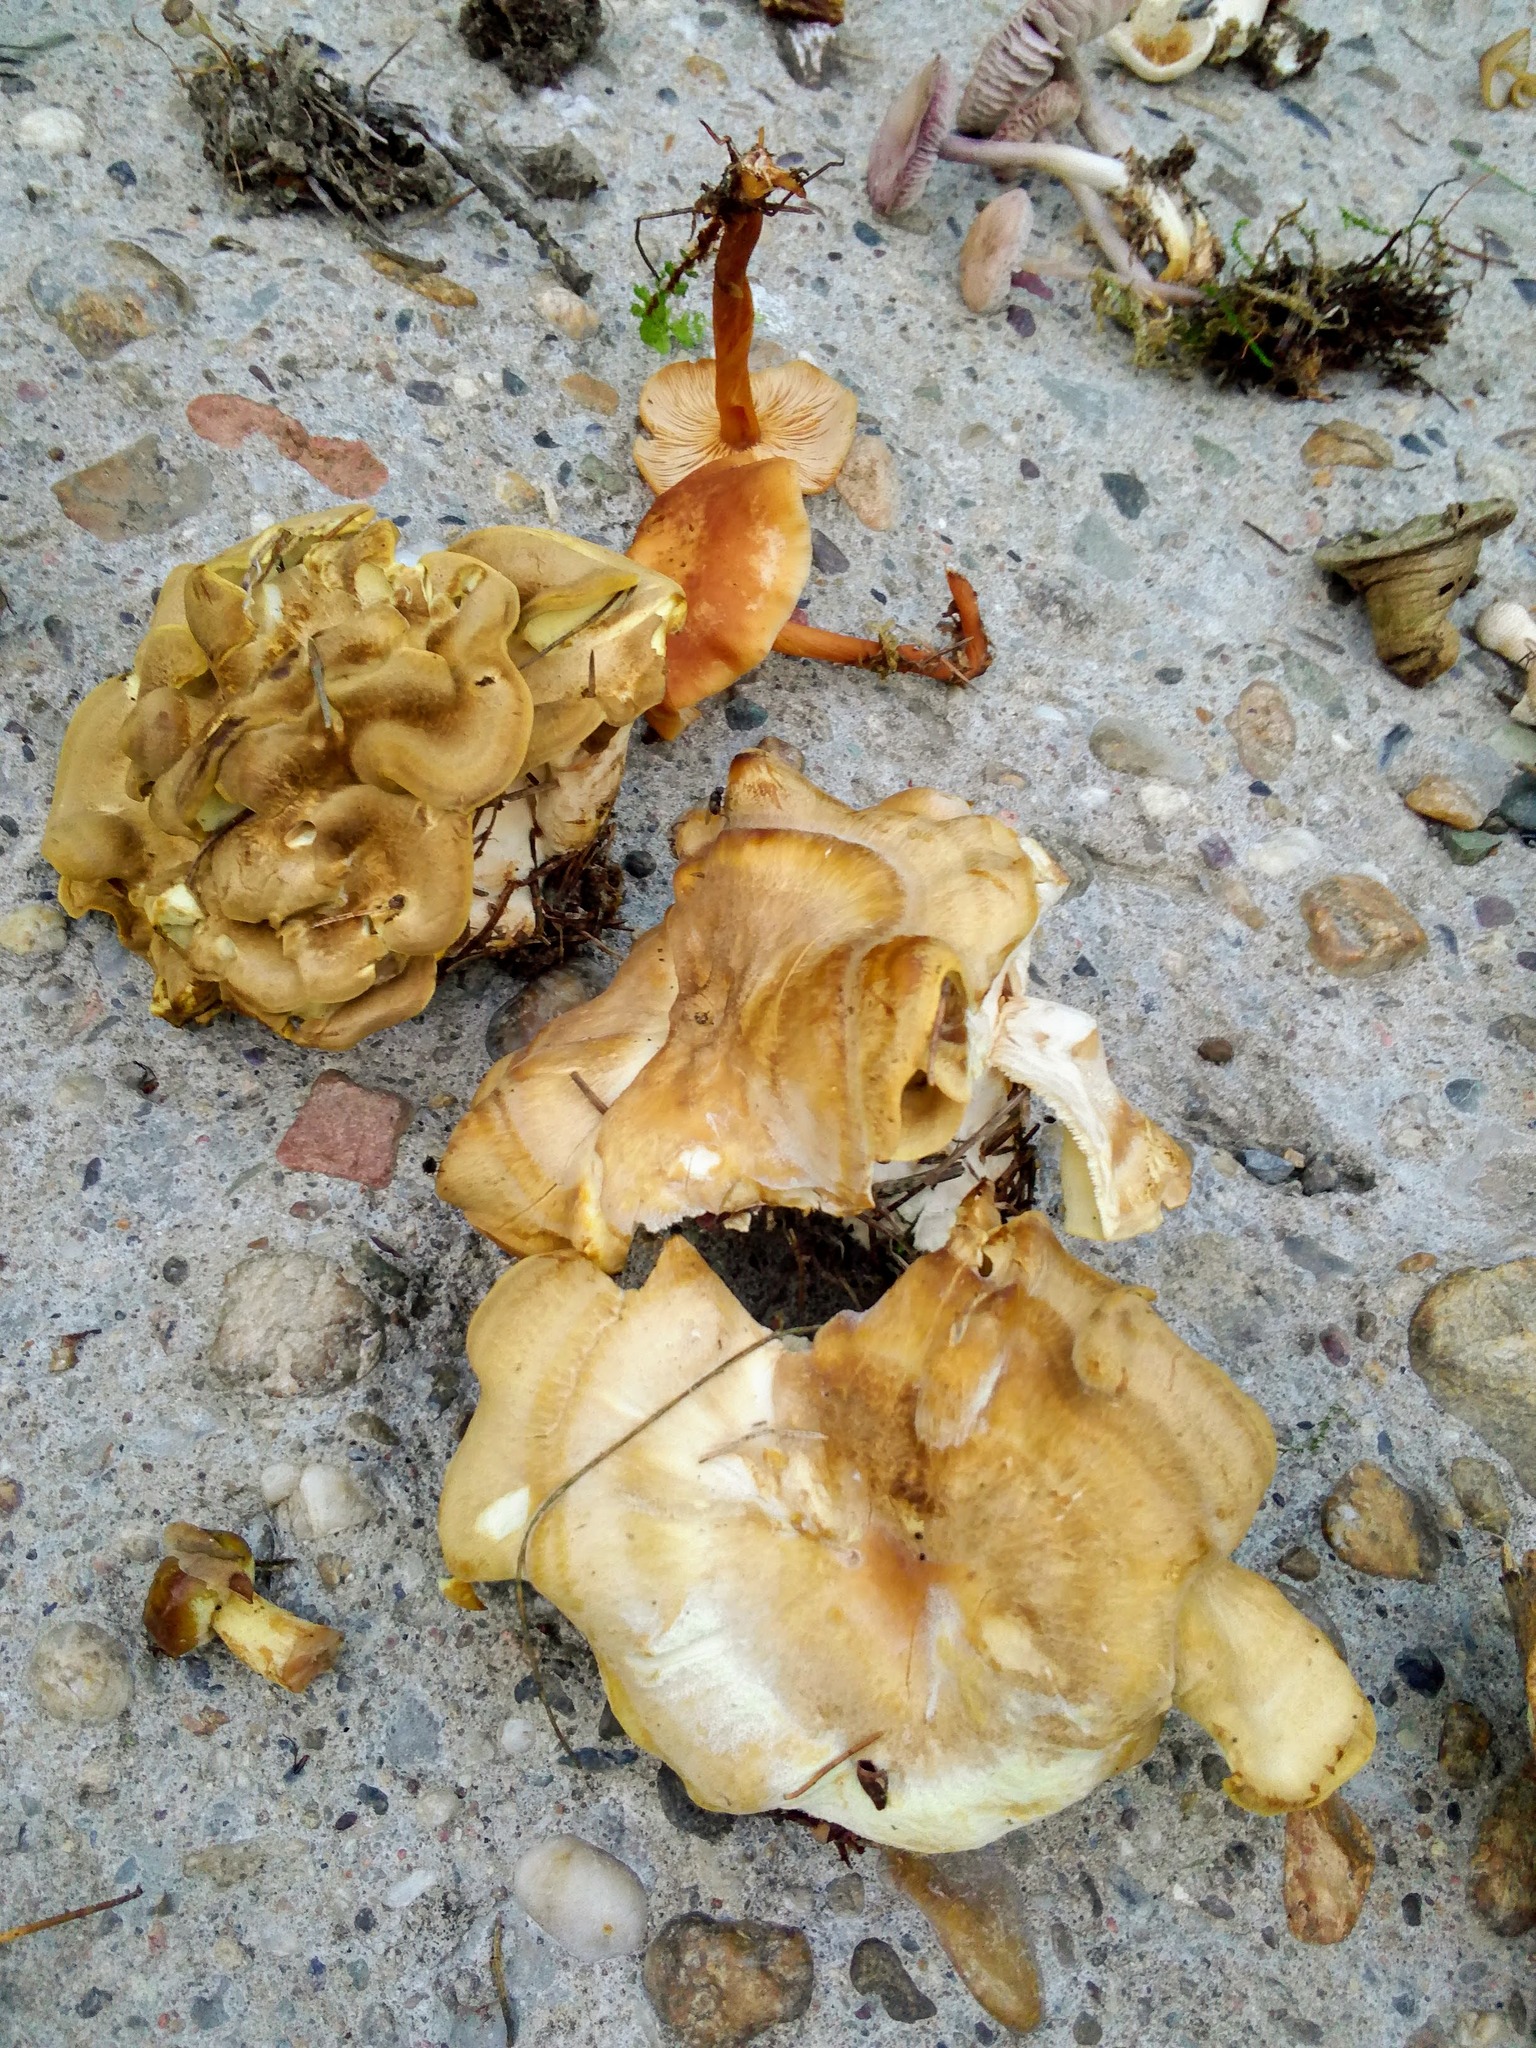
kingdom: Fungi
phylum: Basidiomycota
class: Agaricomycetes
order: Polyporales
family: Steccherinaceae
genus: Xanthoporus
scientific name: Xanthoporus syringae
